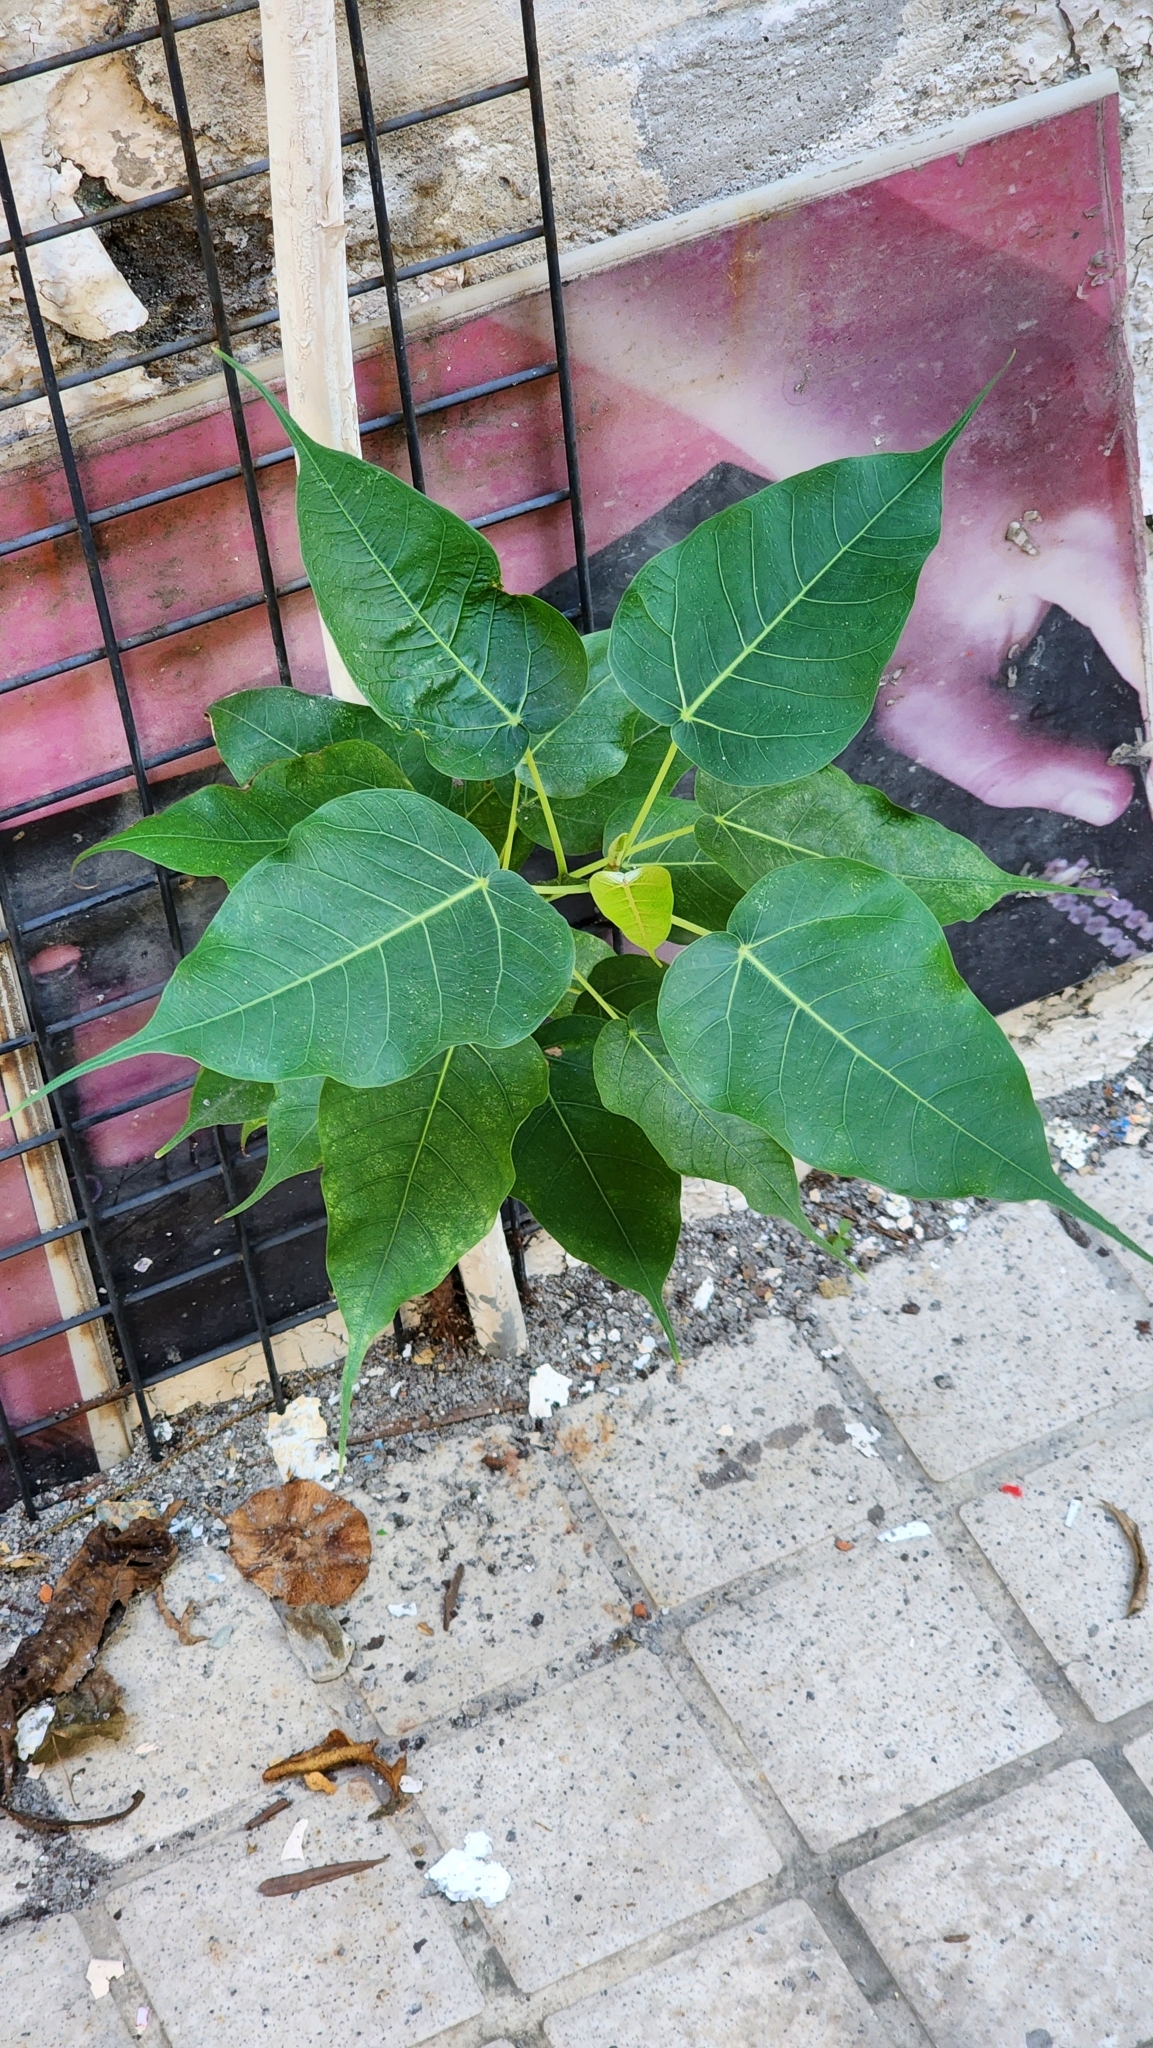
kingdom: Plantae
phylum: Tracheophyta
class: Magnoliopsida
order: Rosales
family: Moraceae
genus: Ficus
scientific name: Ficus religiosa
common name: Bodhi tree
